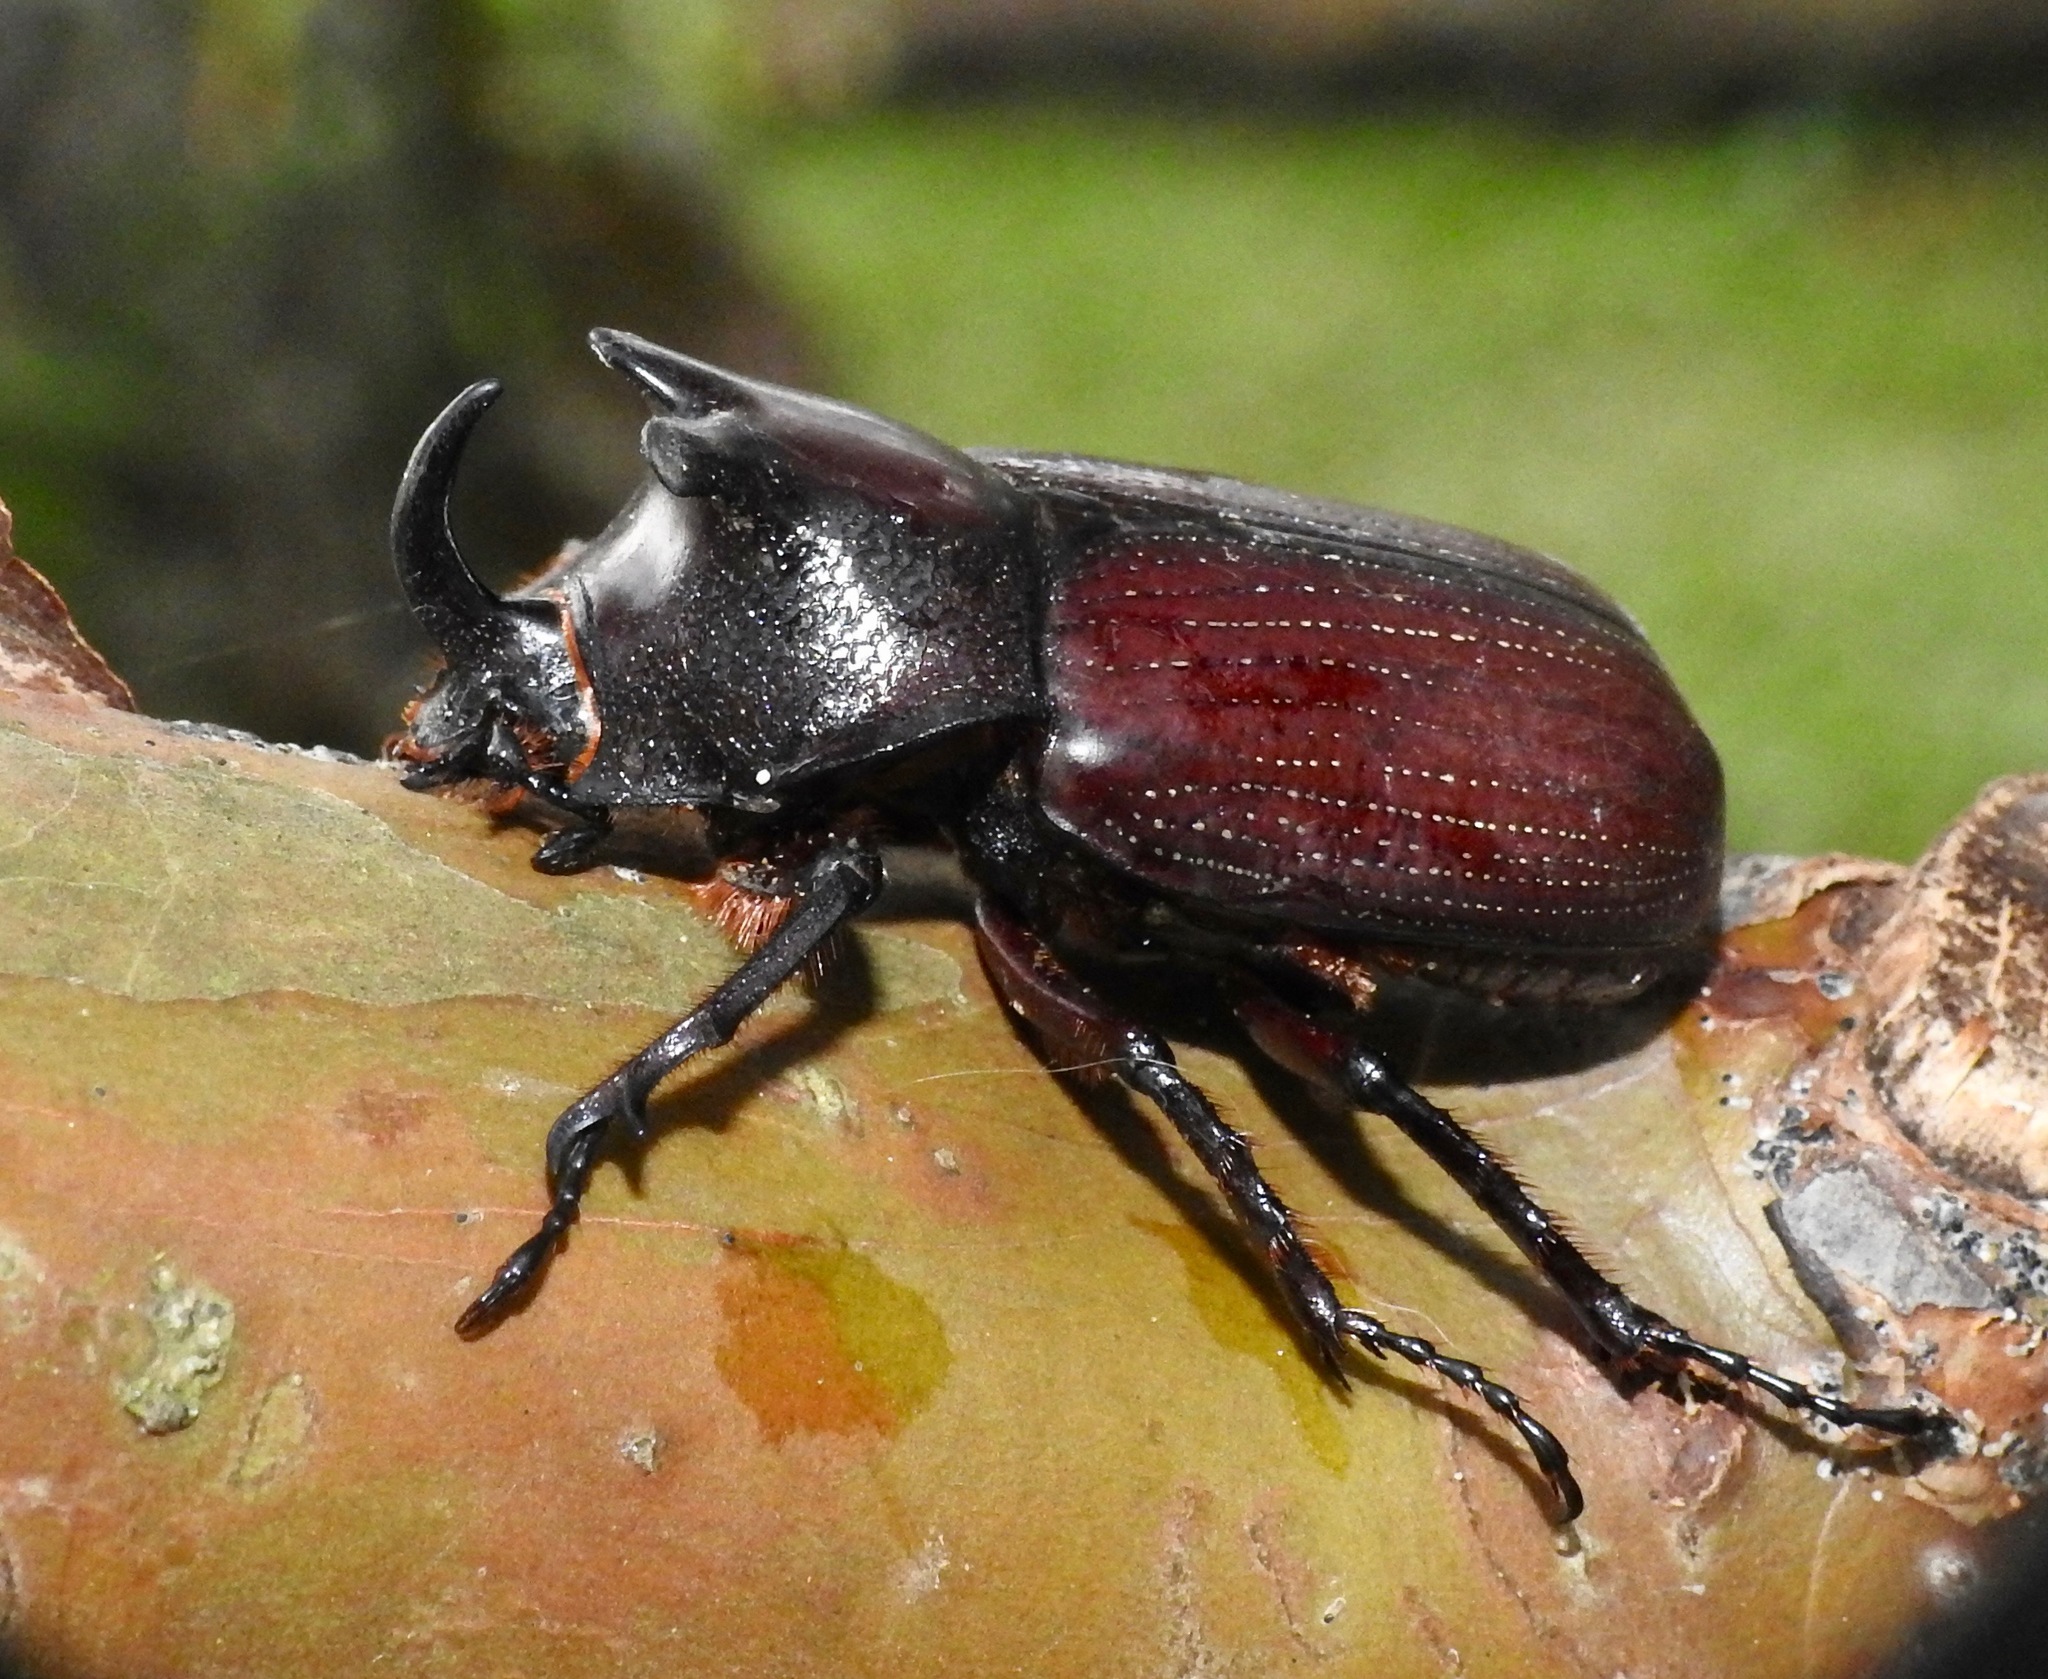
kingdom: Animalia
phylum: Arthropoda
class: Insecta
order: Coleoptera
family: Scarabaeidae
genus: Coelosis
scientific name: Coelosis biloba
